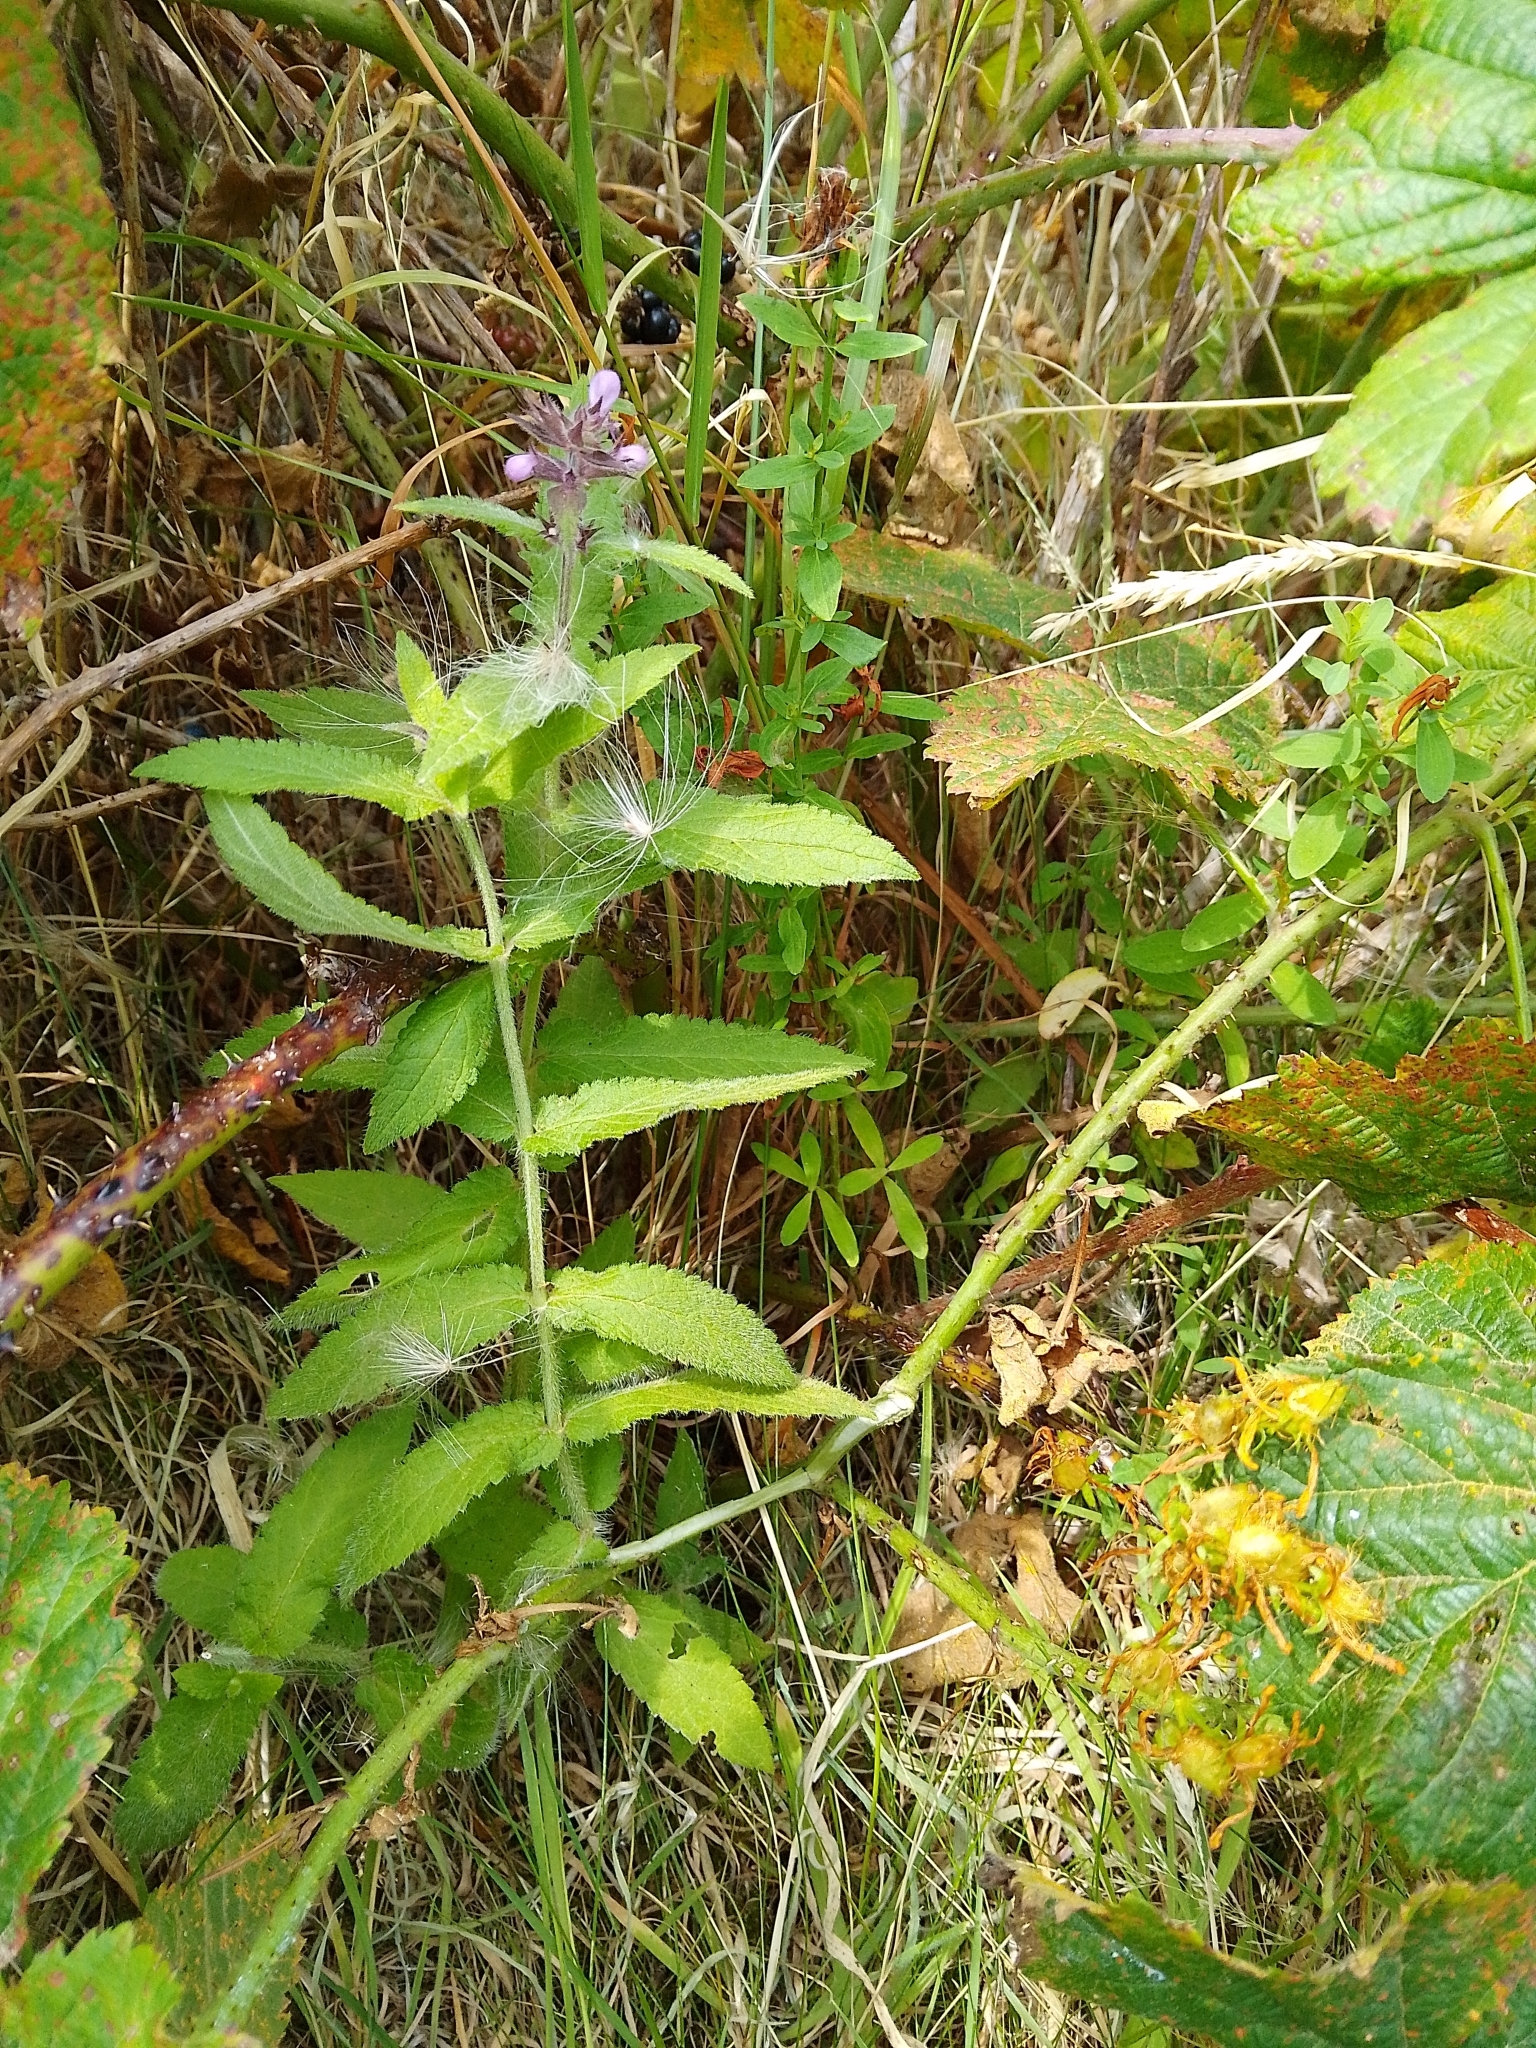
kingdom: Plantae
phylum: Tracheophyta
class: Magnoliopsida
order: Lamiales
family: Lamiaceae
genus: Stachys
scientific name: Stachys palustris
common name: Marsh woundwort
